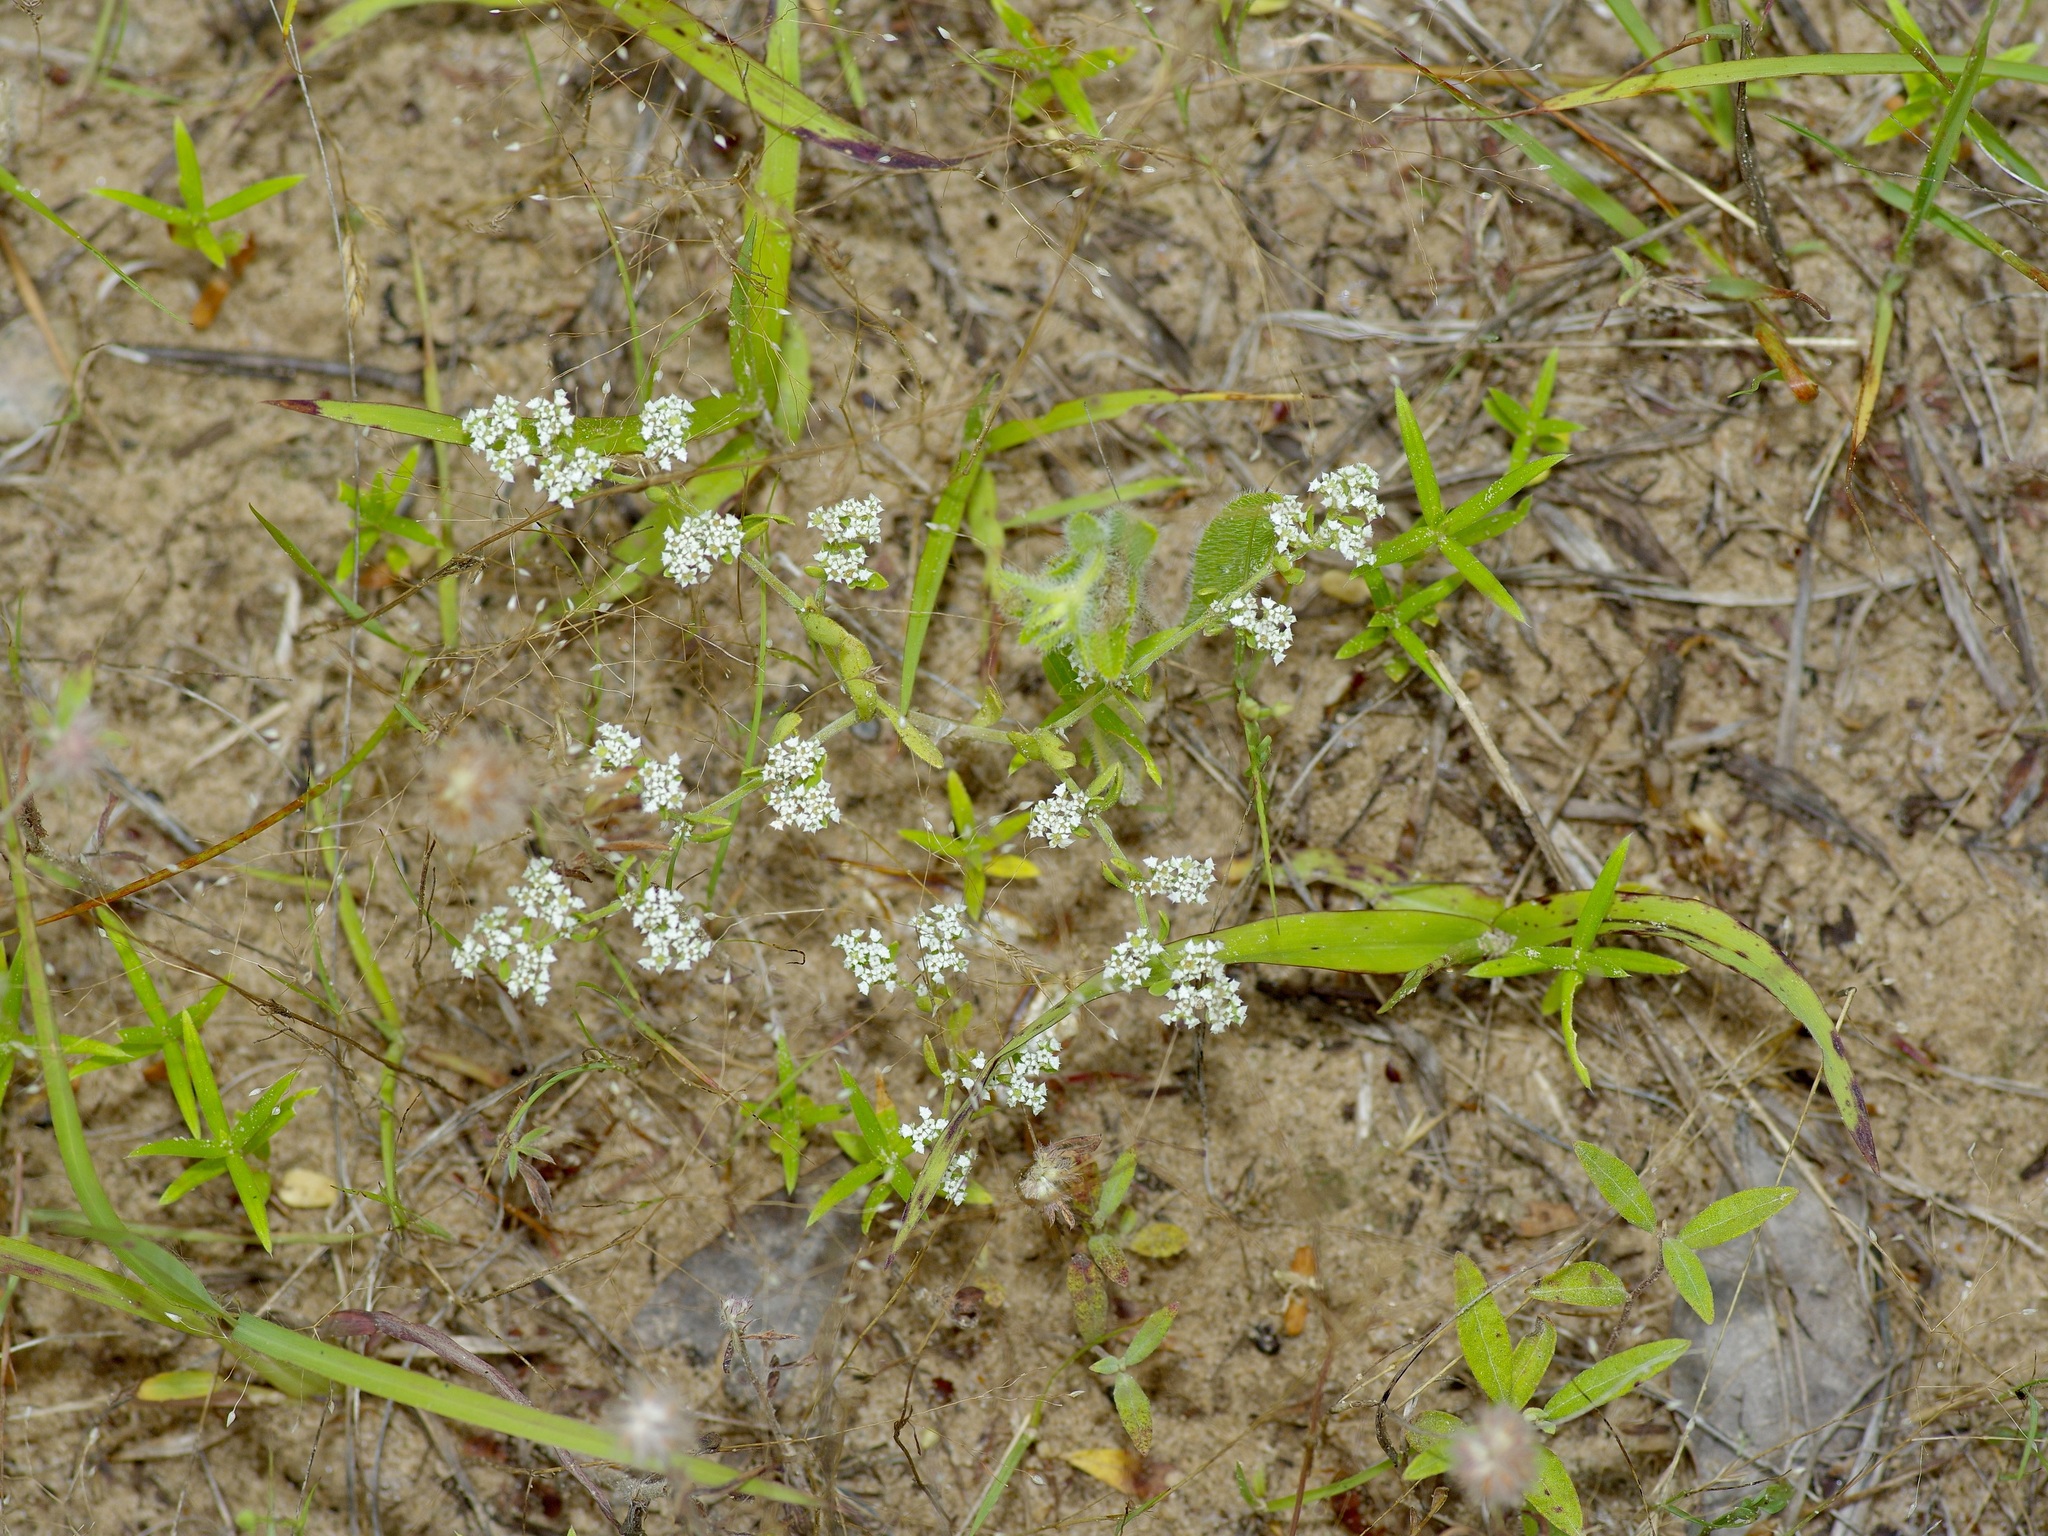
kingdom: Plantae
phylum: Tracheophyta
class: Magnoliopsida
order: Caryophyllales
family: Caryophyllaceae
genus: Paronychia
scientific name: Paronychia drummondii
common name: Drummond's nailwort
